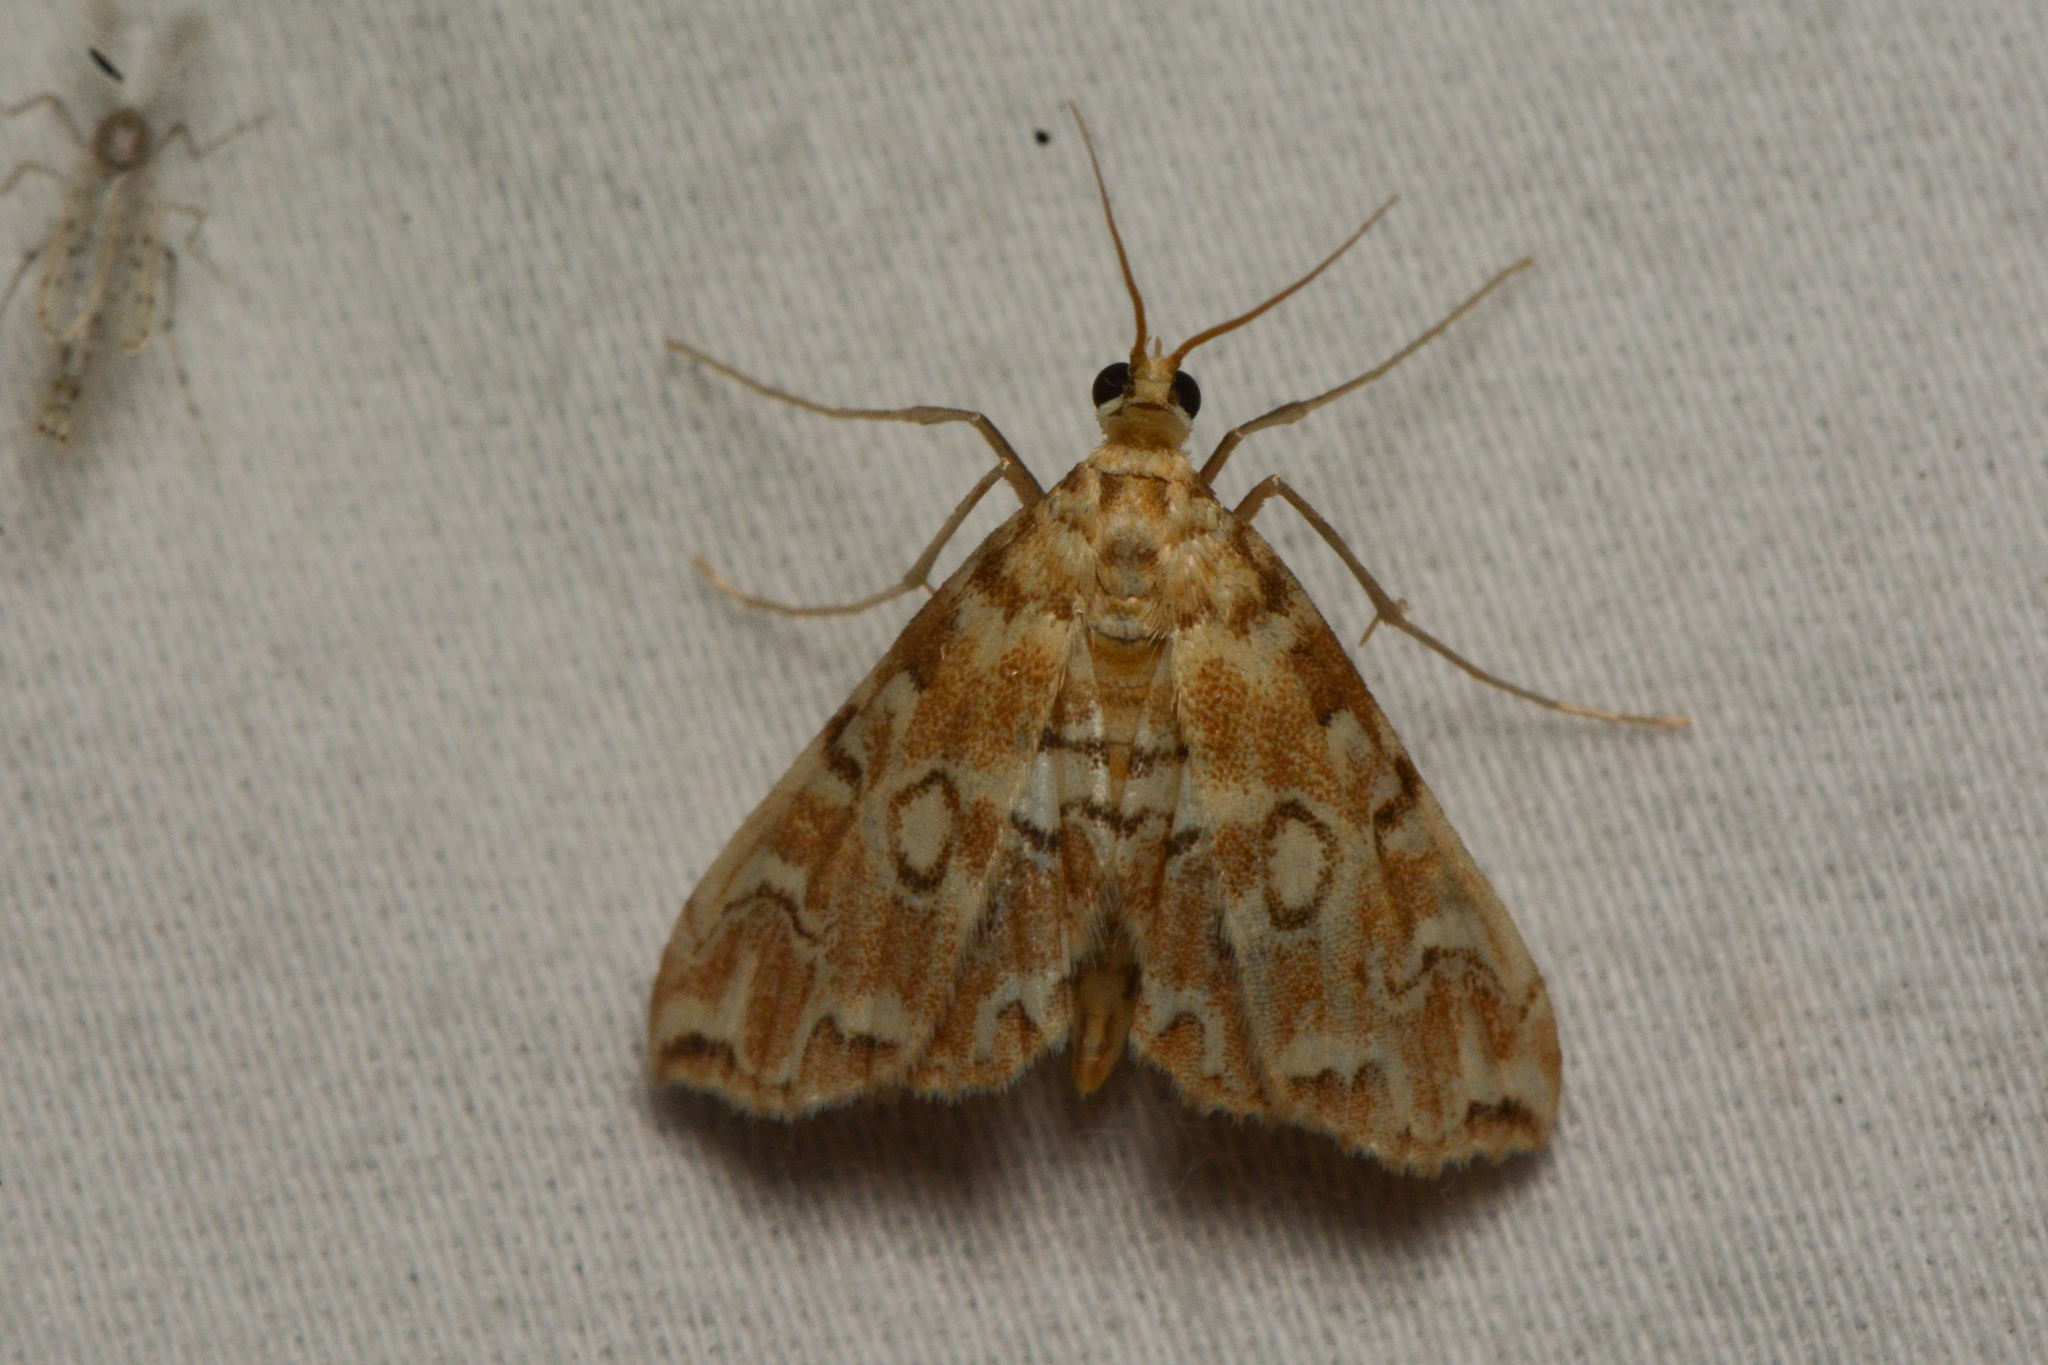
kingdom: Animalia
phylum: Arthropoda
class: Insecta
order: Lepidoptera
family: Crambidae
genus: Elophila
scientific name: Elophila icciusalis
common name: Pondside pyralid moth
